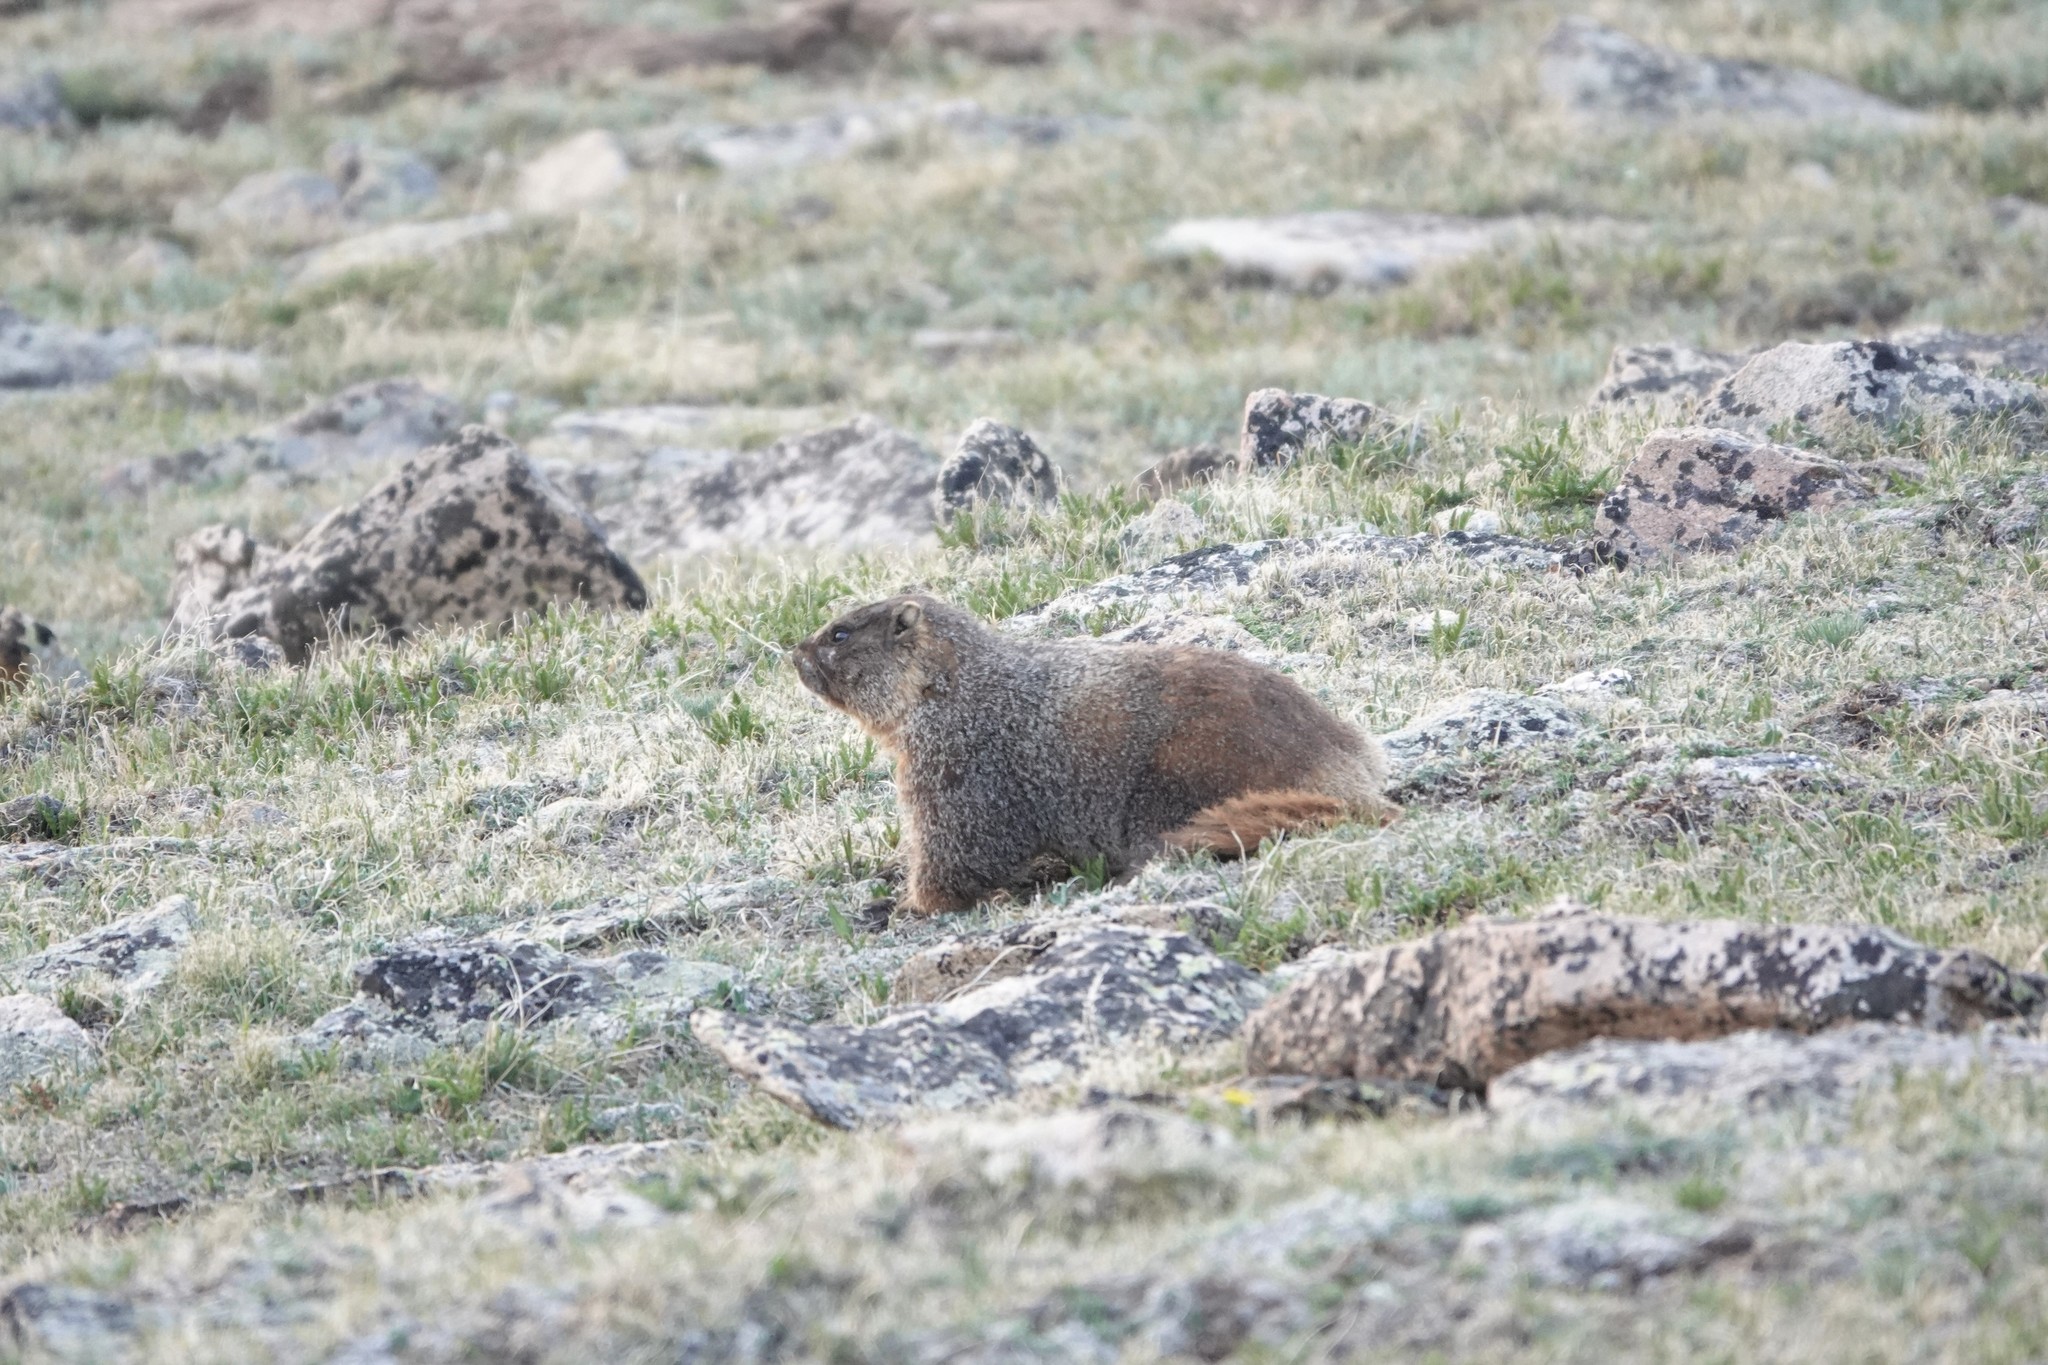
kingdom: Animalia
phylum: Chordata
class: Mammalia
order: Rodentia
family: Sciuridae
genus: Marmota
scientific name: Marmota flaviventris
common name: Yellow-bellied marmot
